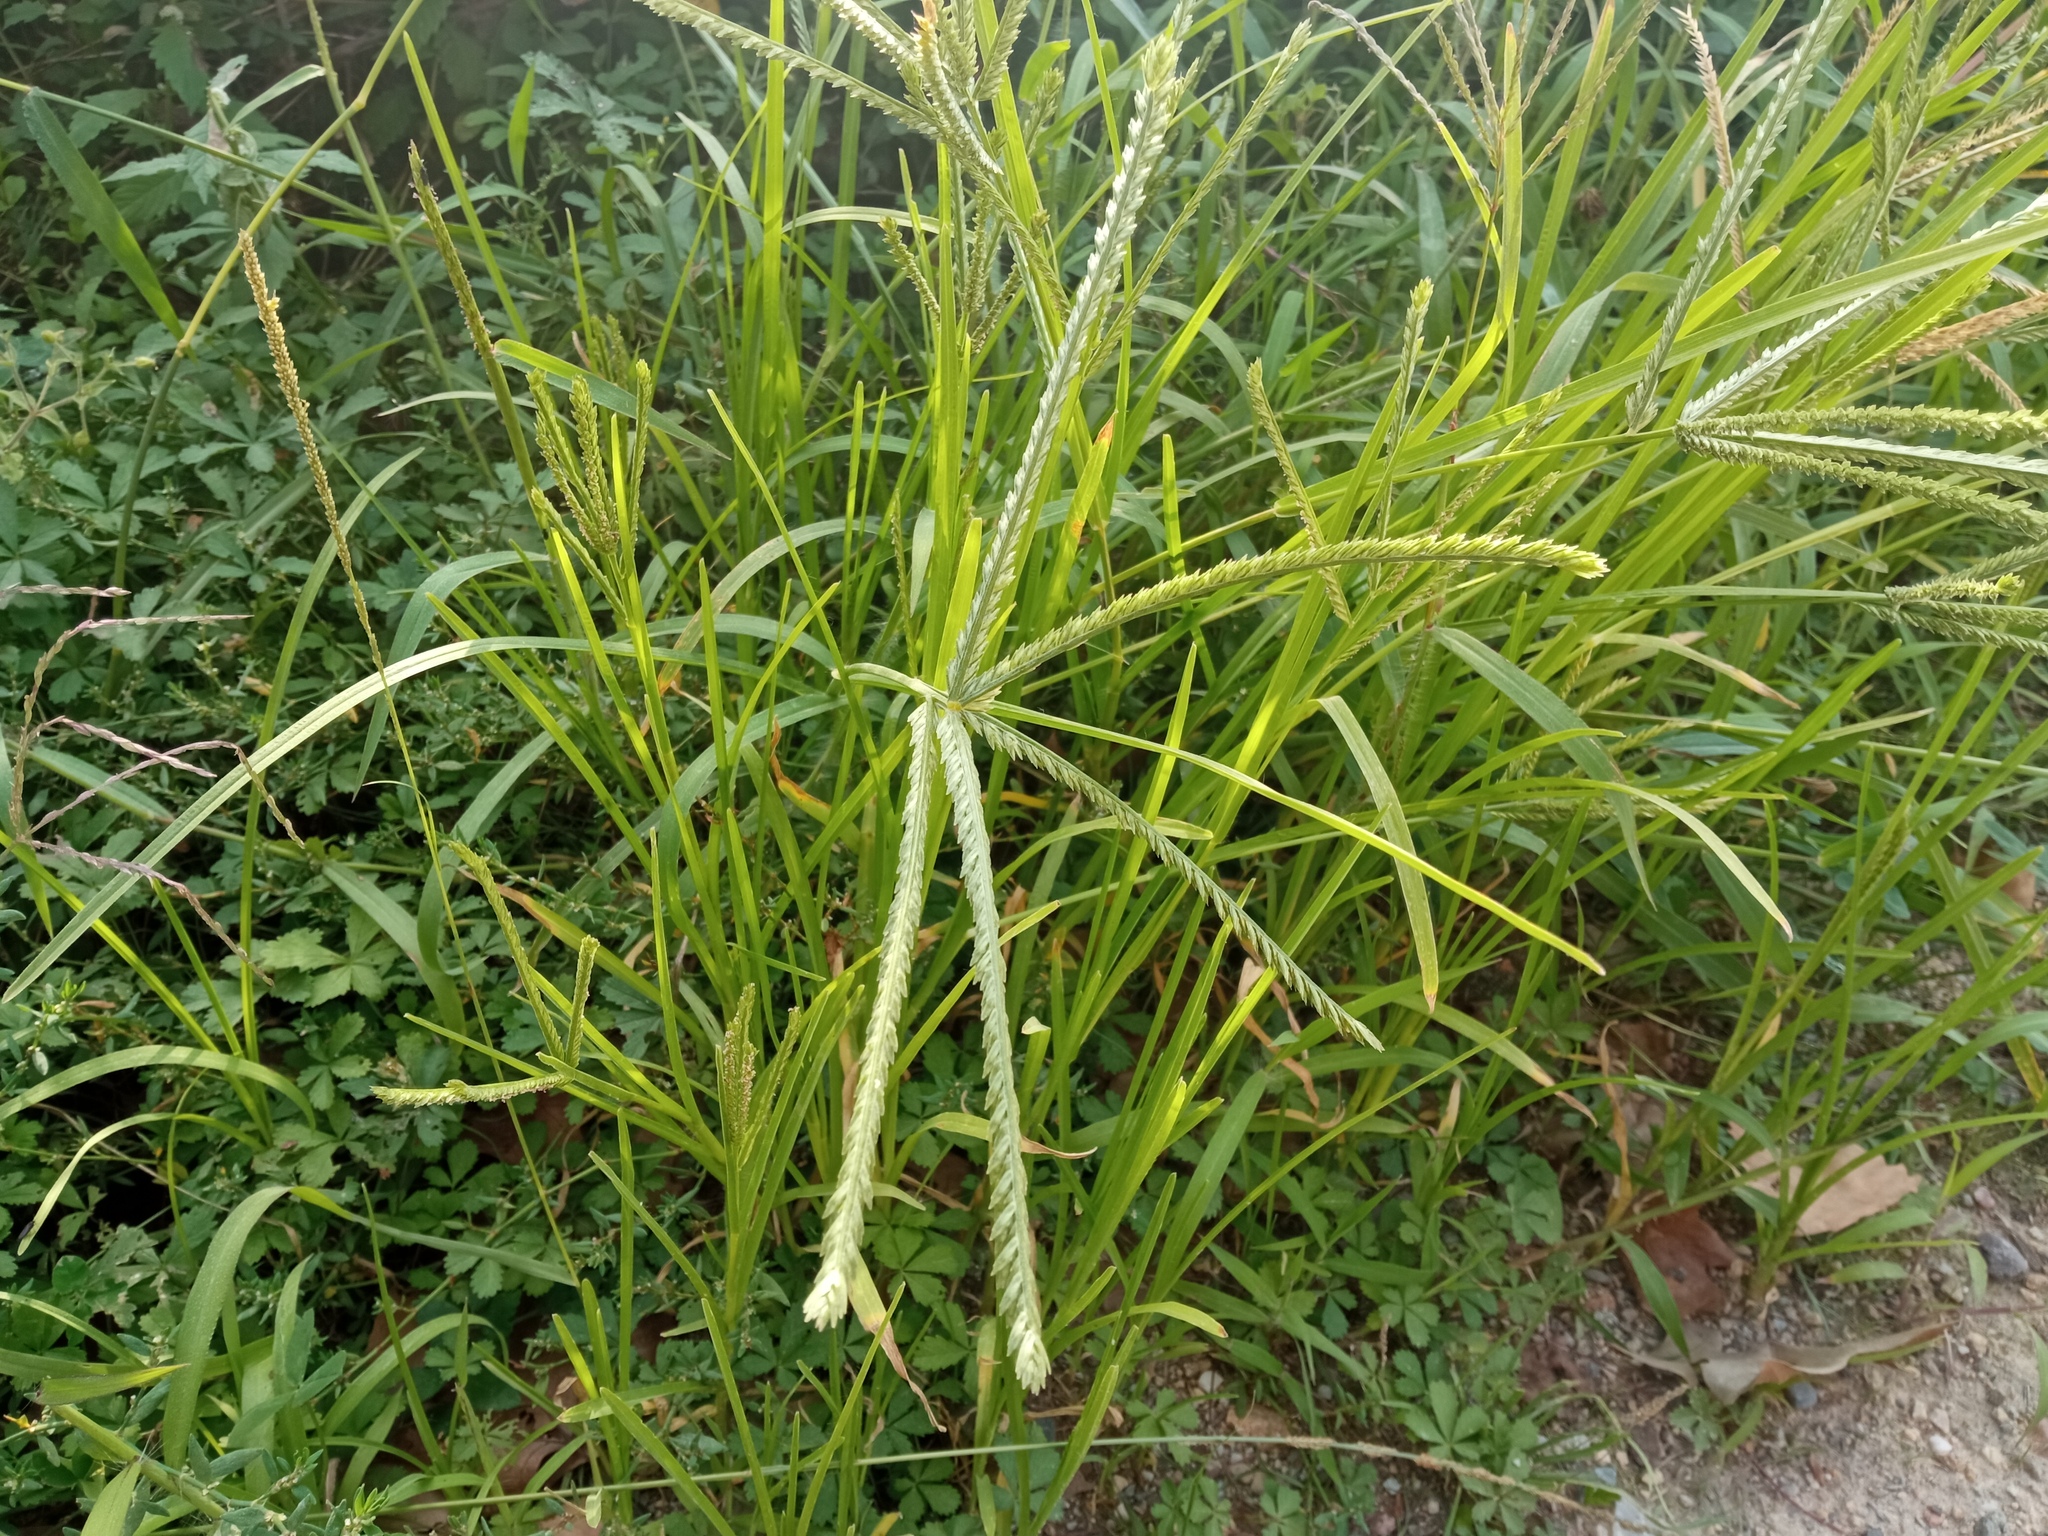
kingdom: Plantae
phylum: Tracheophyta
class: Liliopsida
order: Poales
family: Poaceae
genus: Eleusine
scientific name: Eleusine indica
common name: Yard-grass
